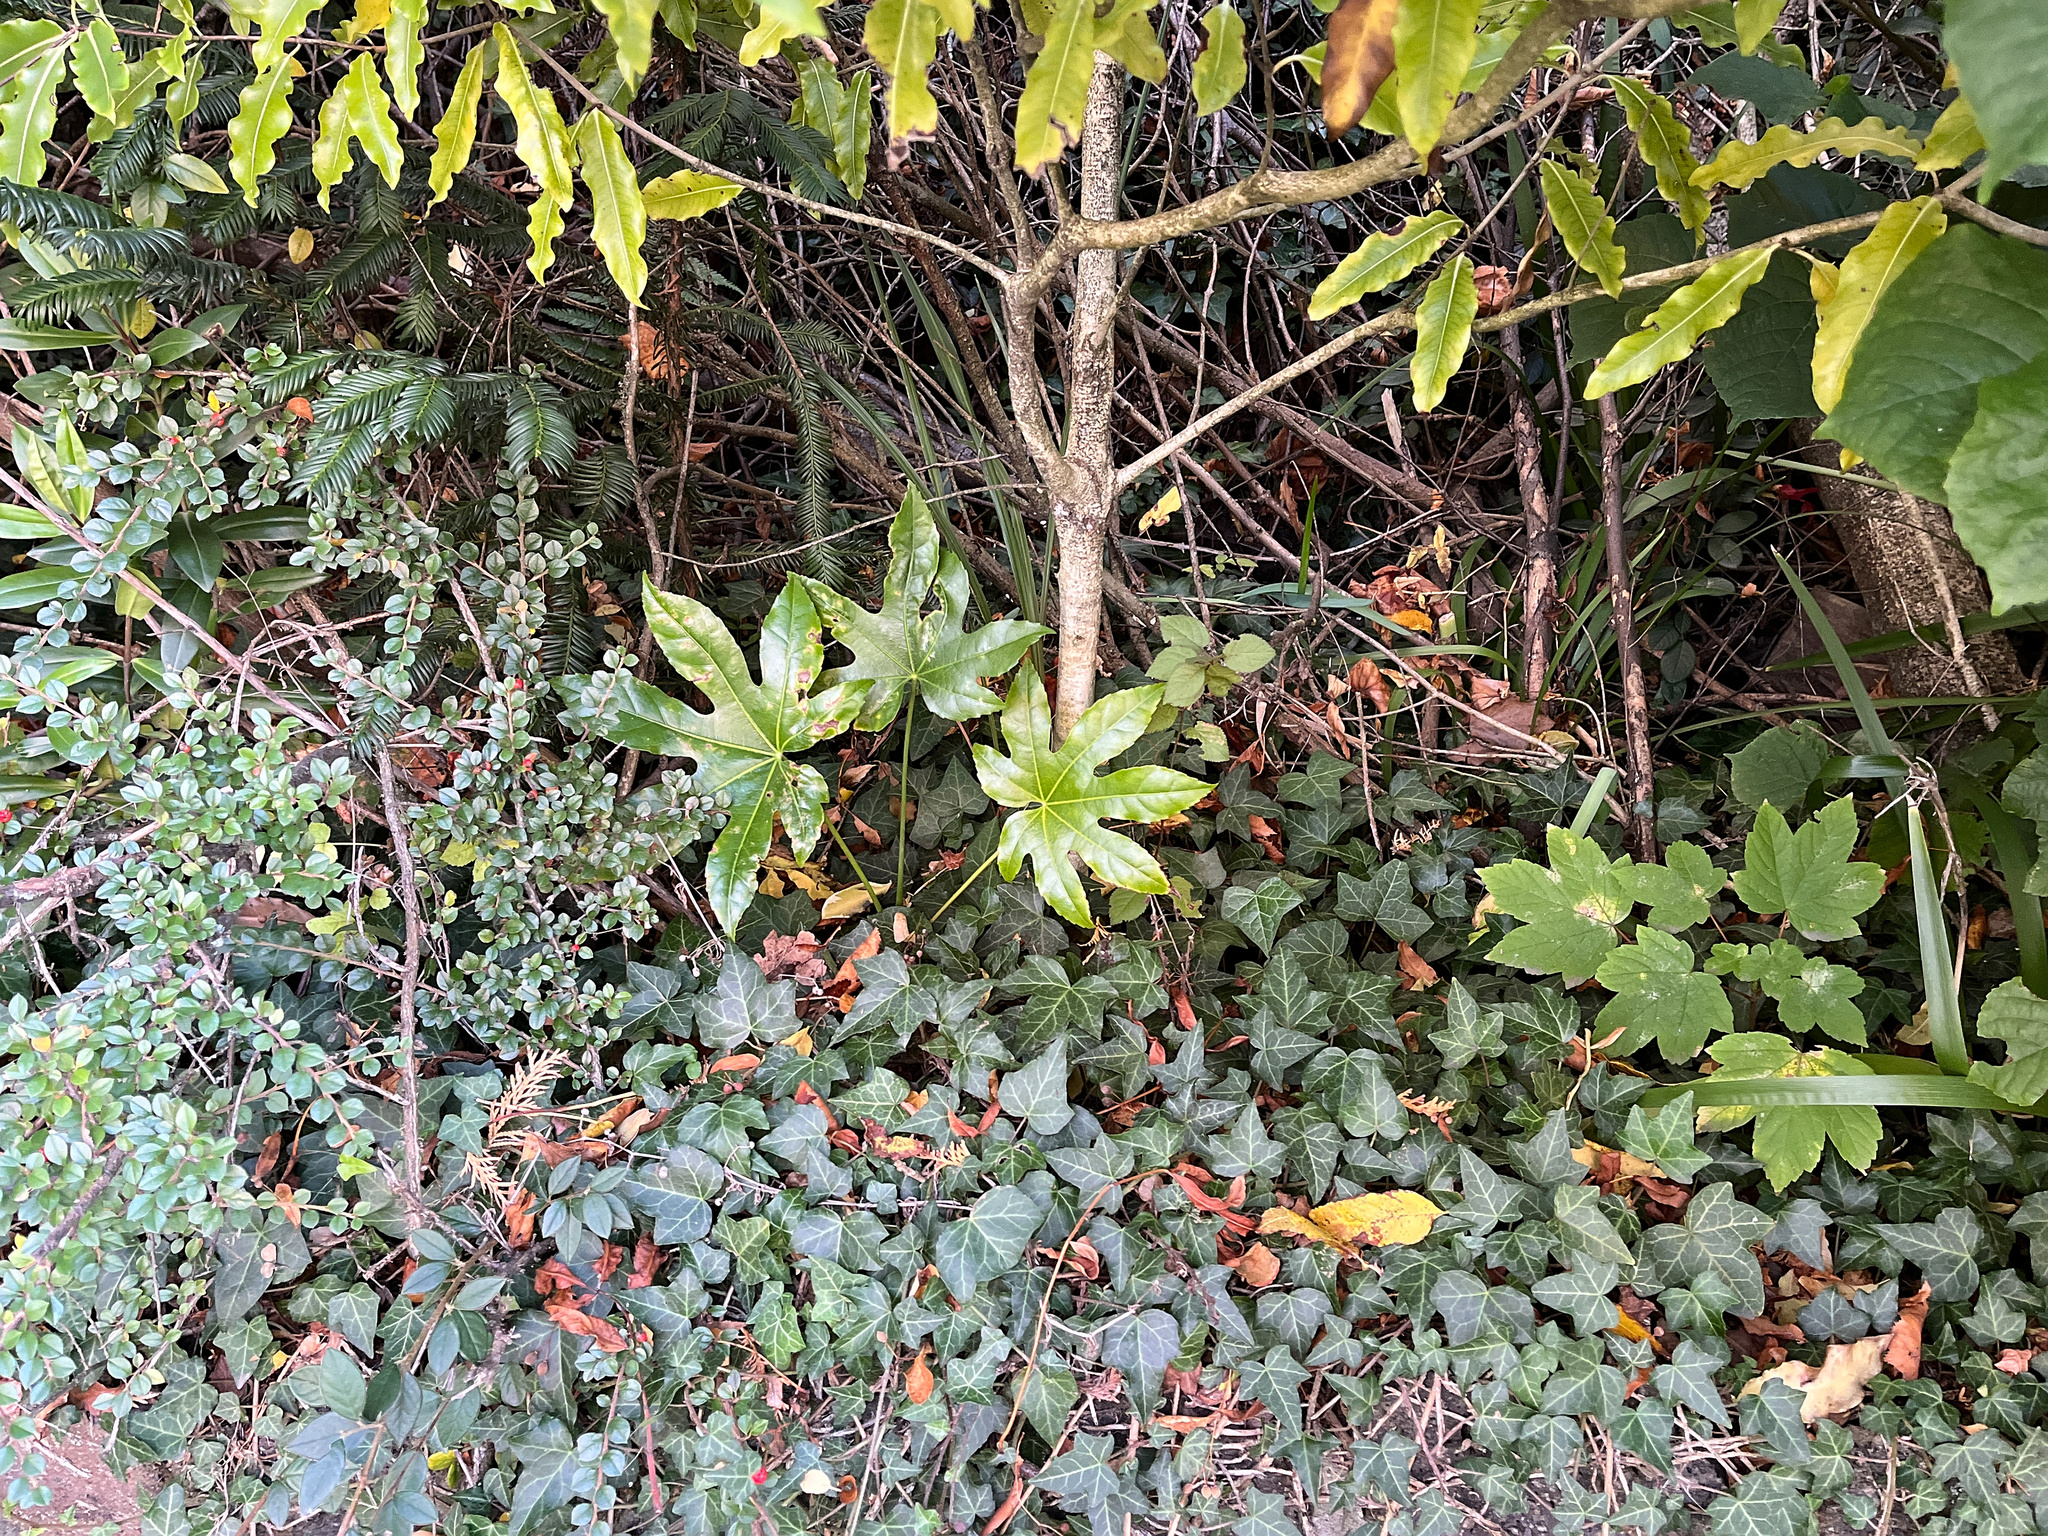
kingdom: Plantae
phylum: Tracheophyta
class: Magnoliopsida
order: Apiales
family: Araliaceae
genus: Fatsia
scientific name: Fatsia japonica
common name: Fatsia
